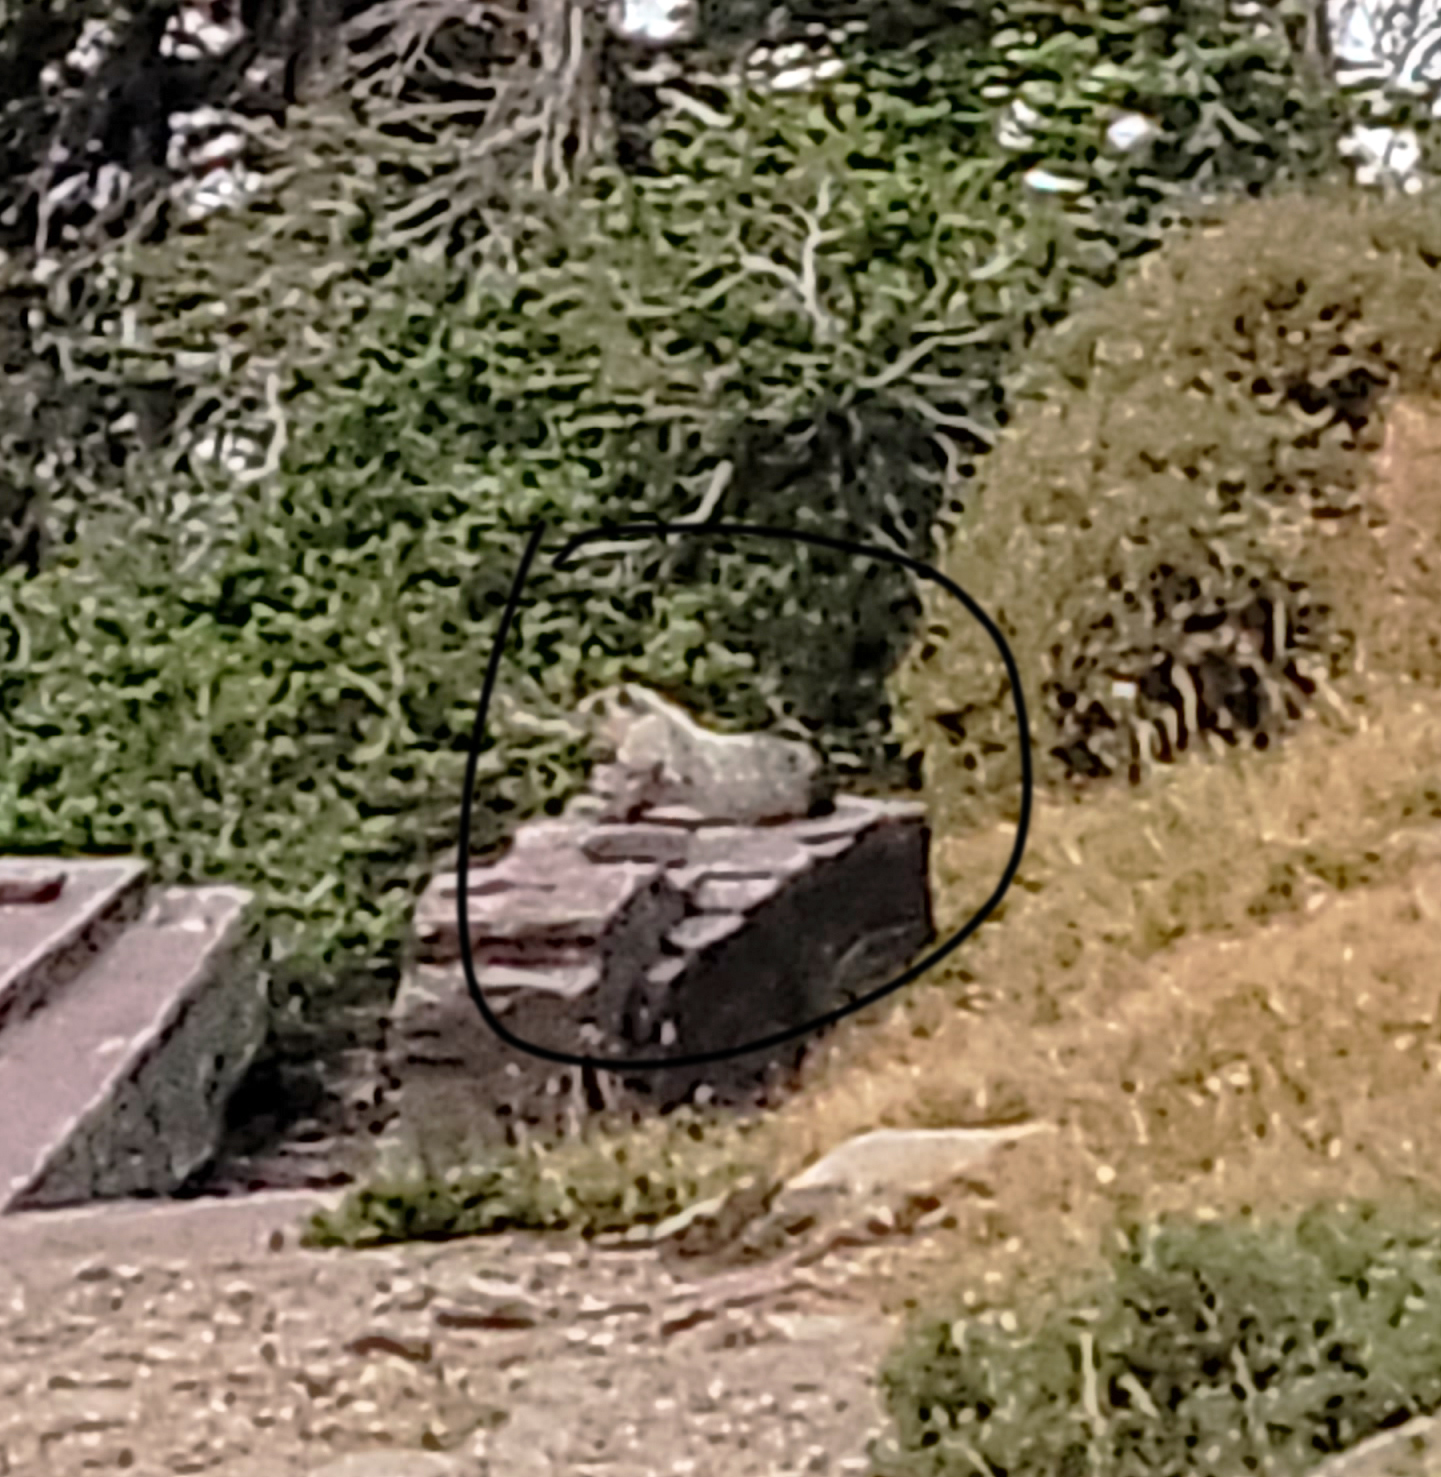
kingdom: Animalia
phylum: Chordata
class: Mammalia
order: Rodentia
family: Sciuridae
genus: Marmota
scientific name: Marmota caligata
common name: Hoary marmot
